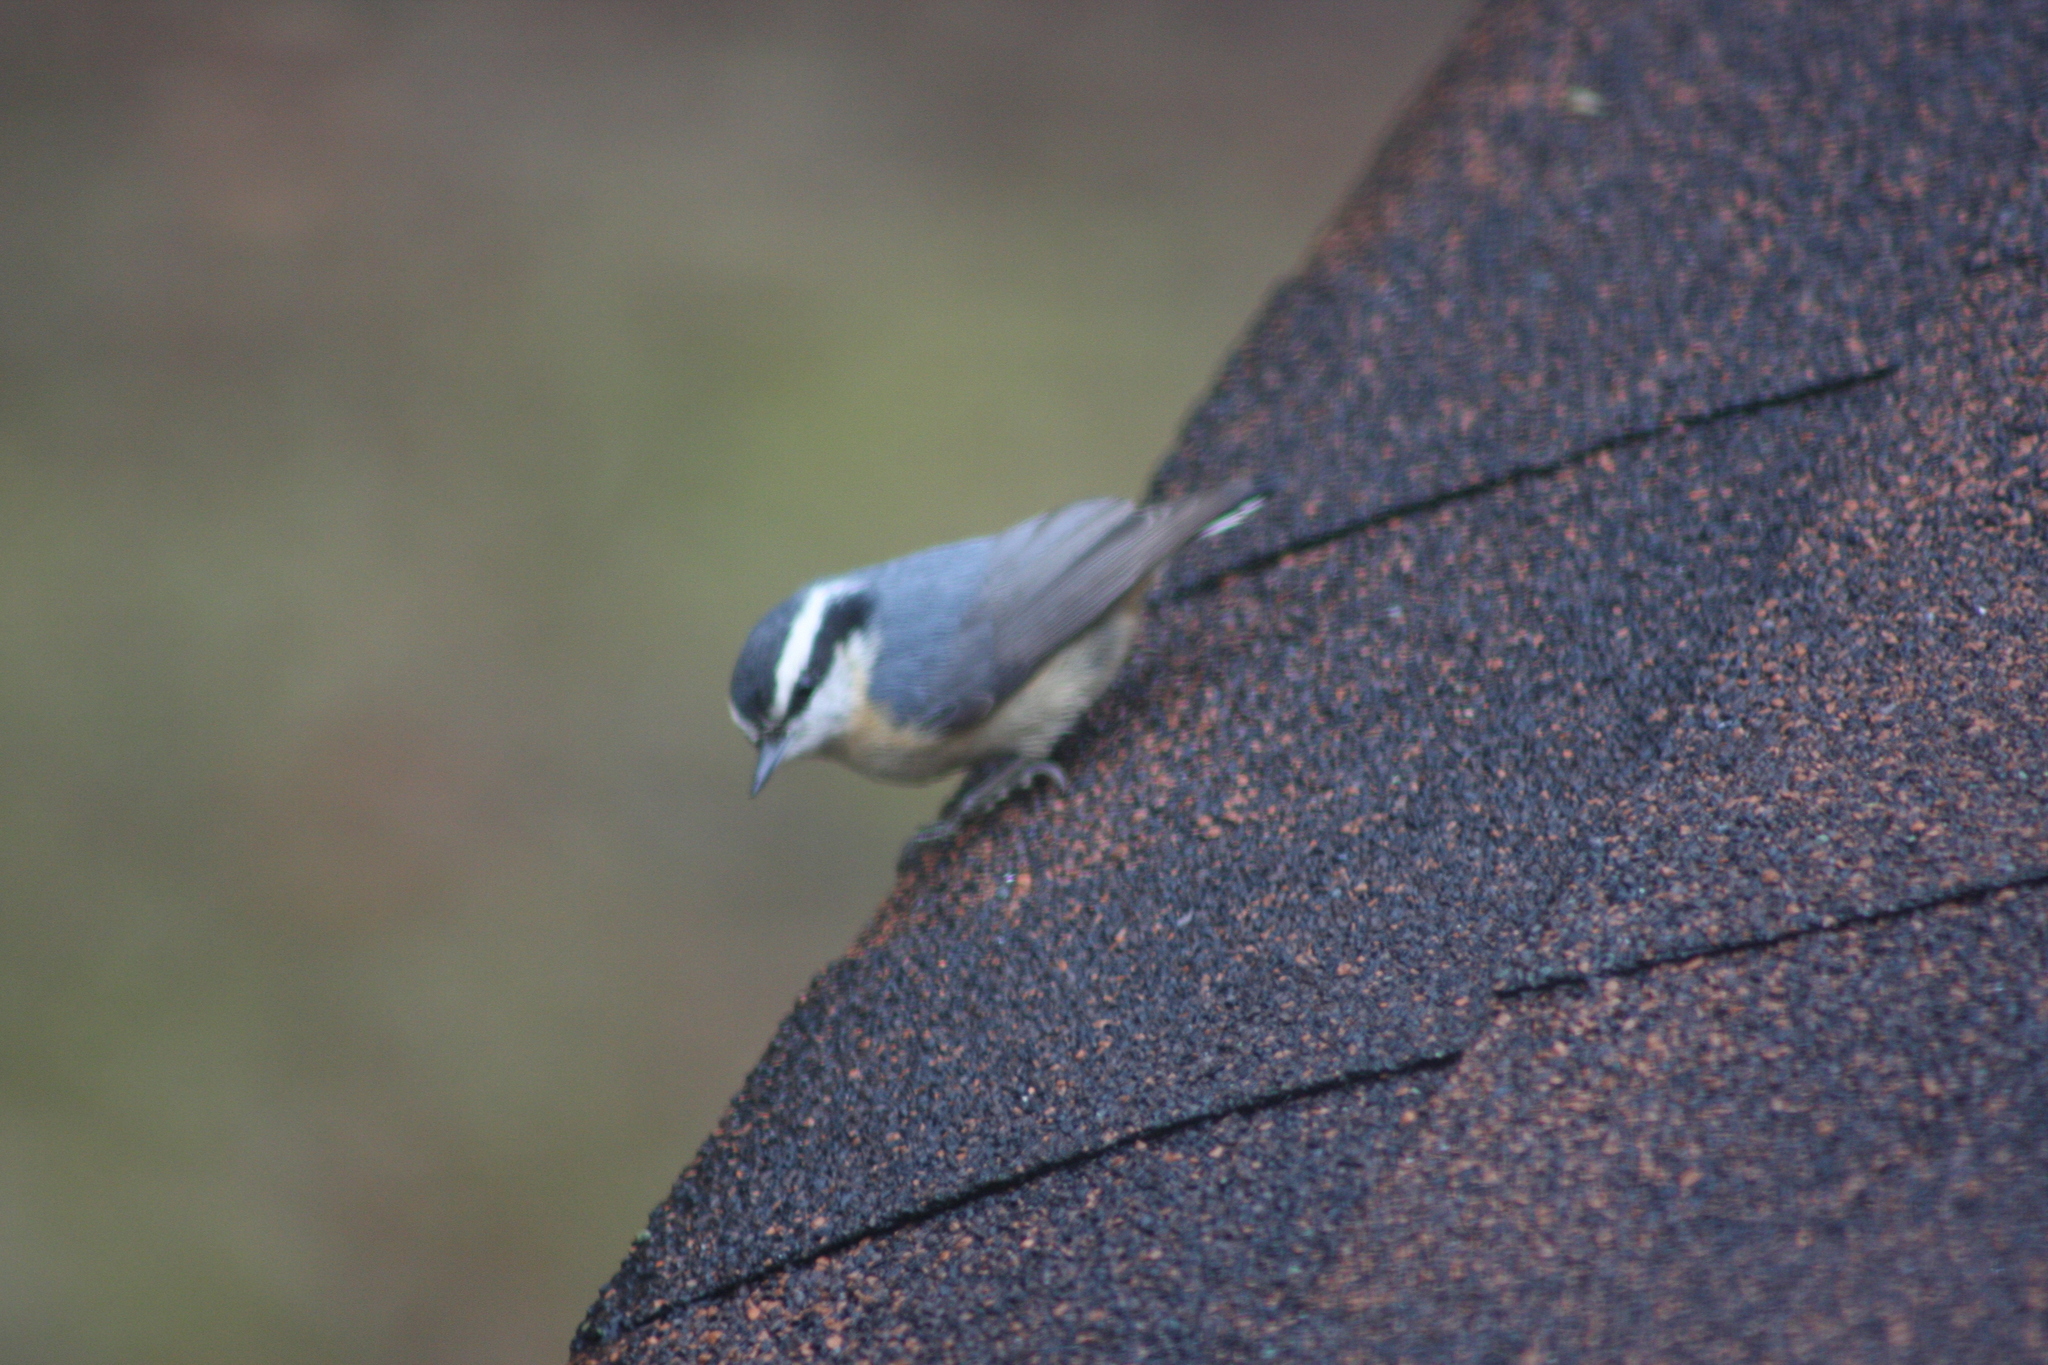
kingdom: Animalia
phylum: Chordata
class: Aves
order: Passeriformes
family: Sittidae
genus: Sitta
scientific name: Sitta canadensis
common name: Red-breasted nuthatch
